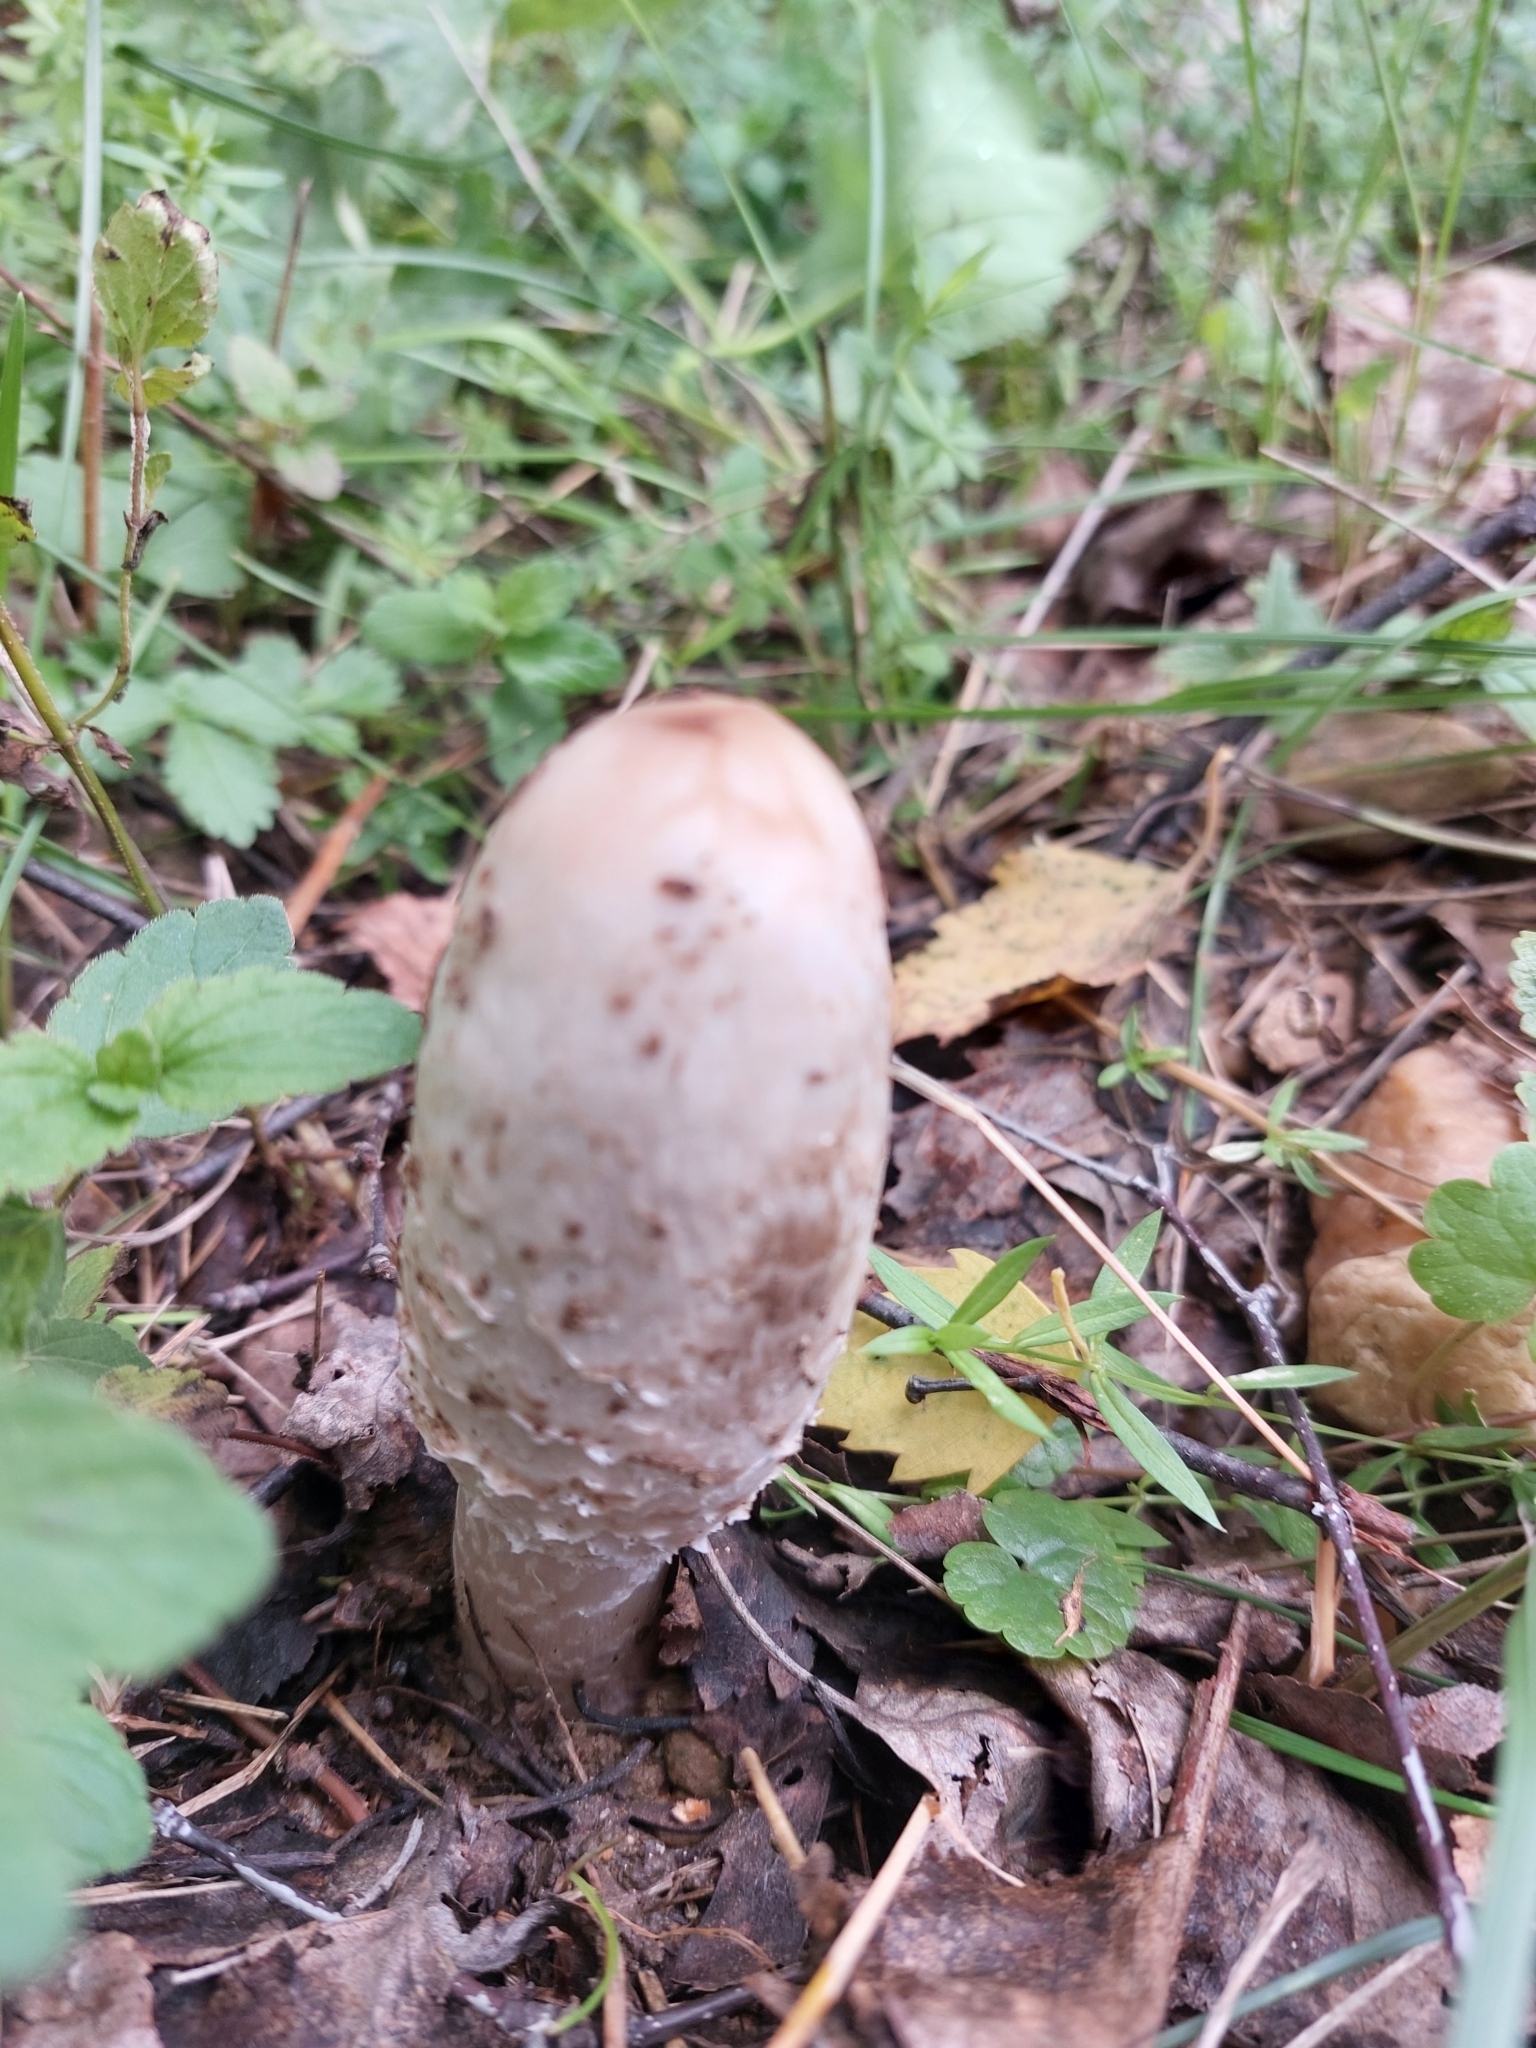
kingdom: Fungi
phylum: Basidiomycota
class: Agaricomycetes
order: Agaricales
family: Agaricaceae
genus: Coprinus
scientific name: Coprinus comatus
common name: Lawyer's wig
